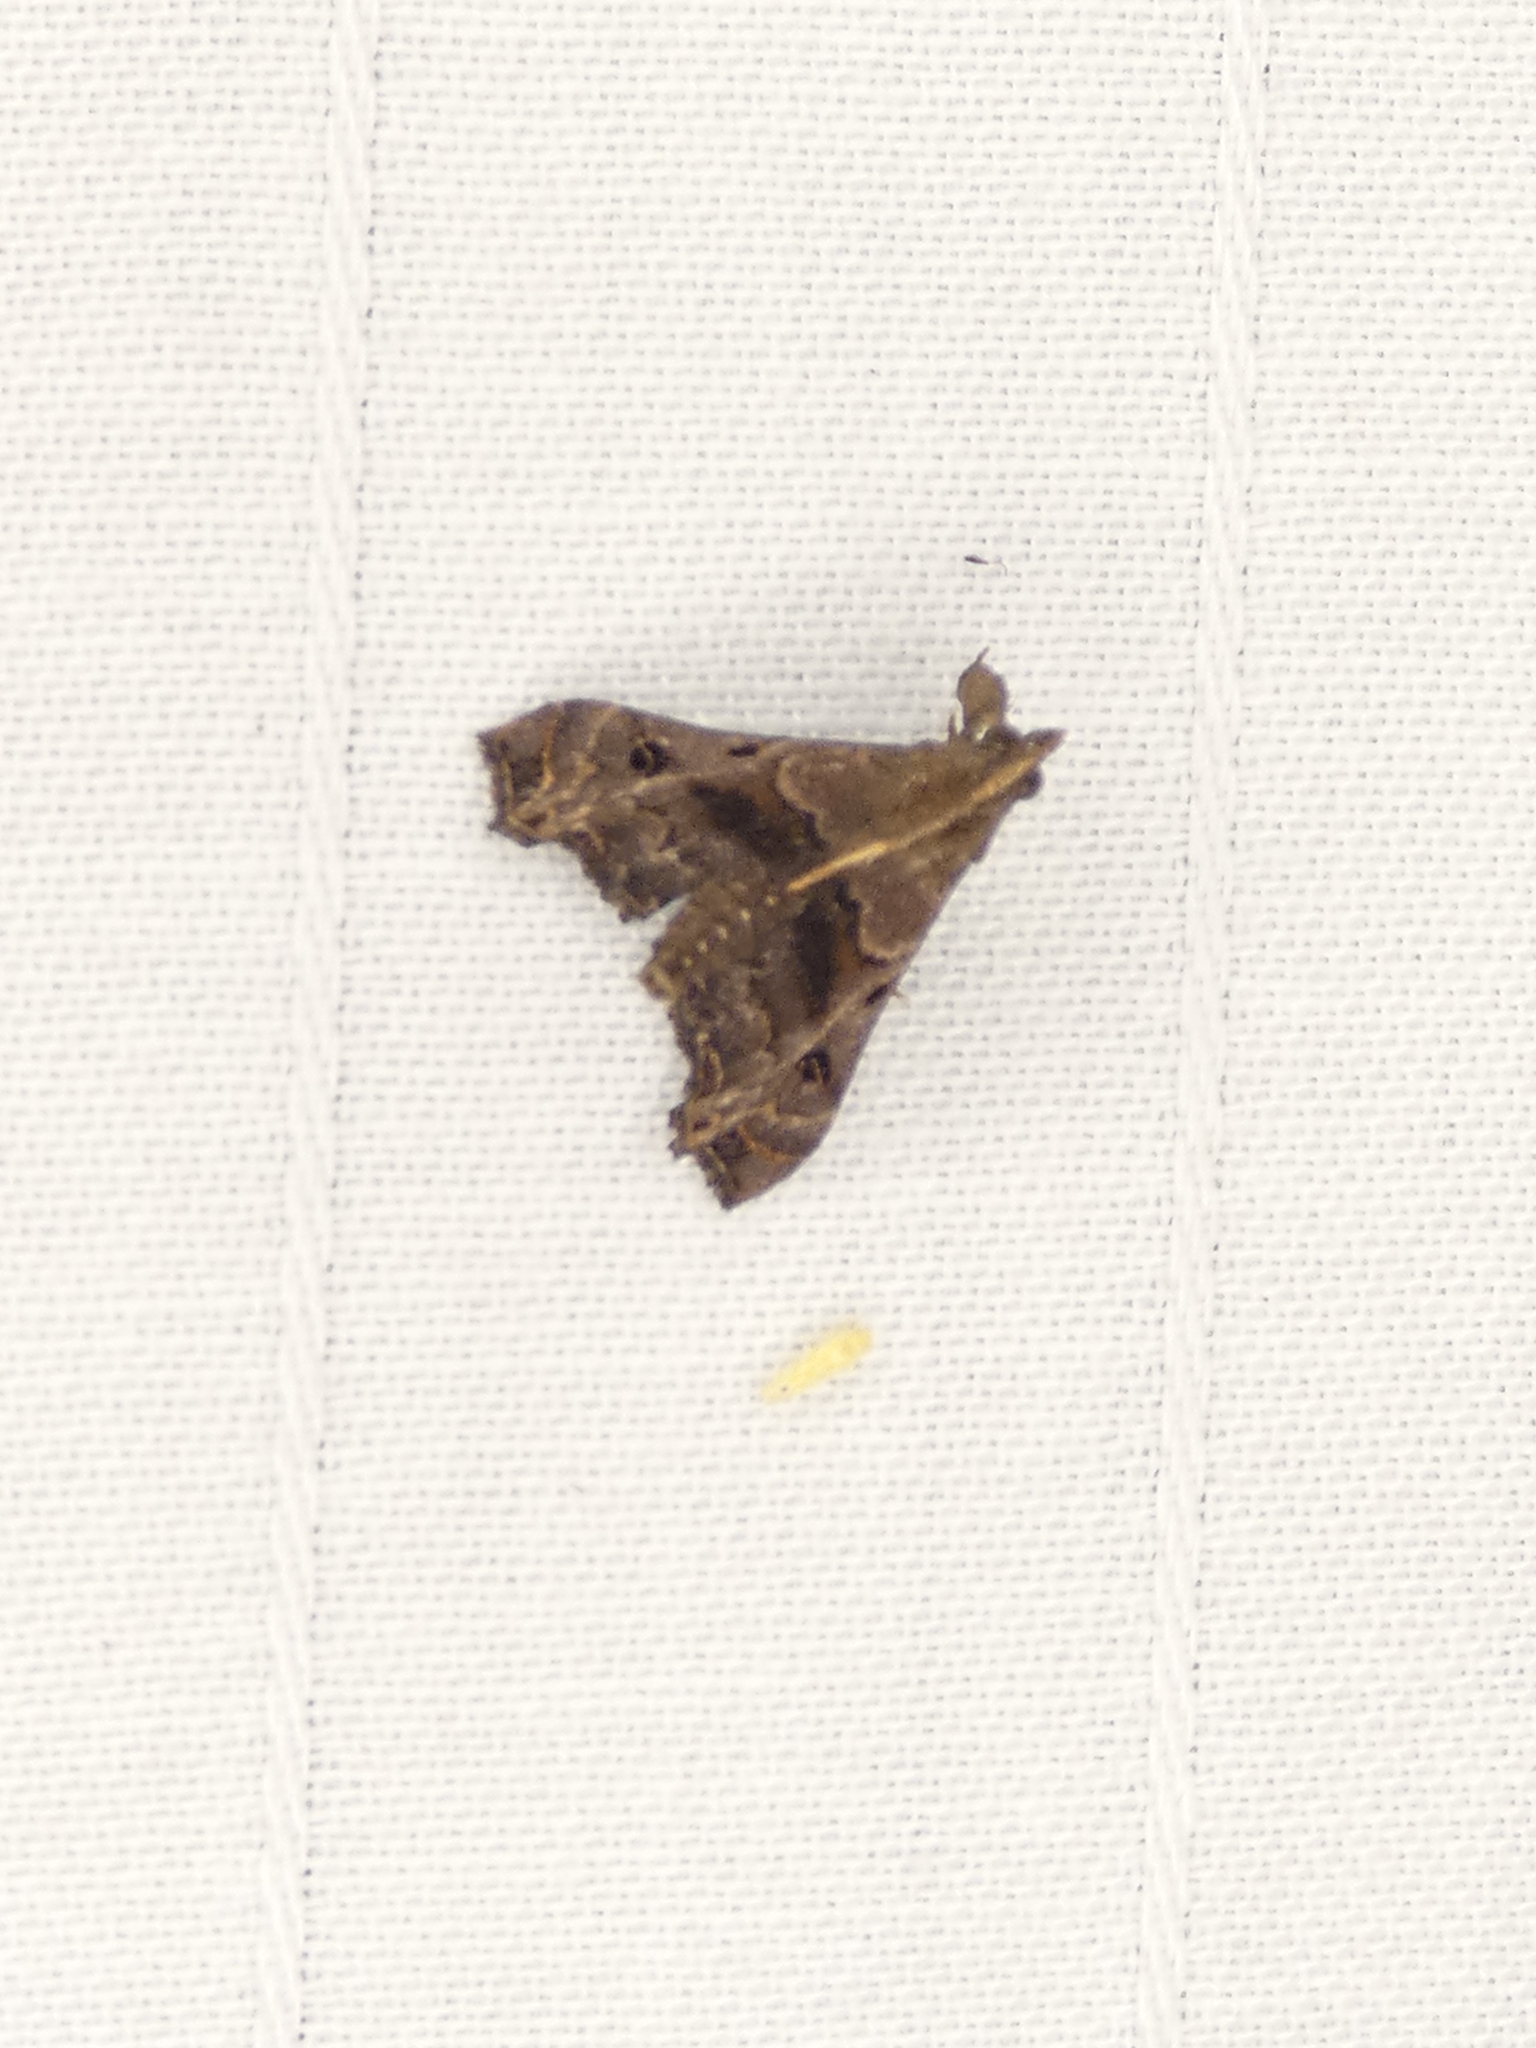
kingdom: Animalia
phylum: Arthropoda
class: Insecta
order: Lepidoptera
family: Erebidae
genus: Palthis
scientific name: Palthis asopialis
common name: Faint-spotted palthis moth
